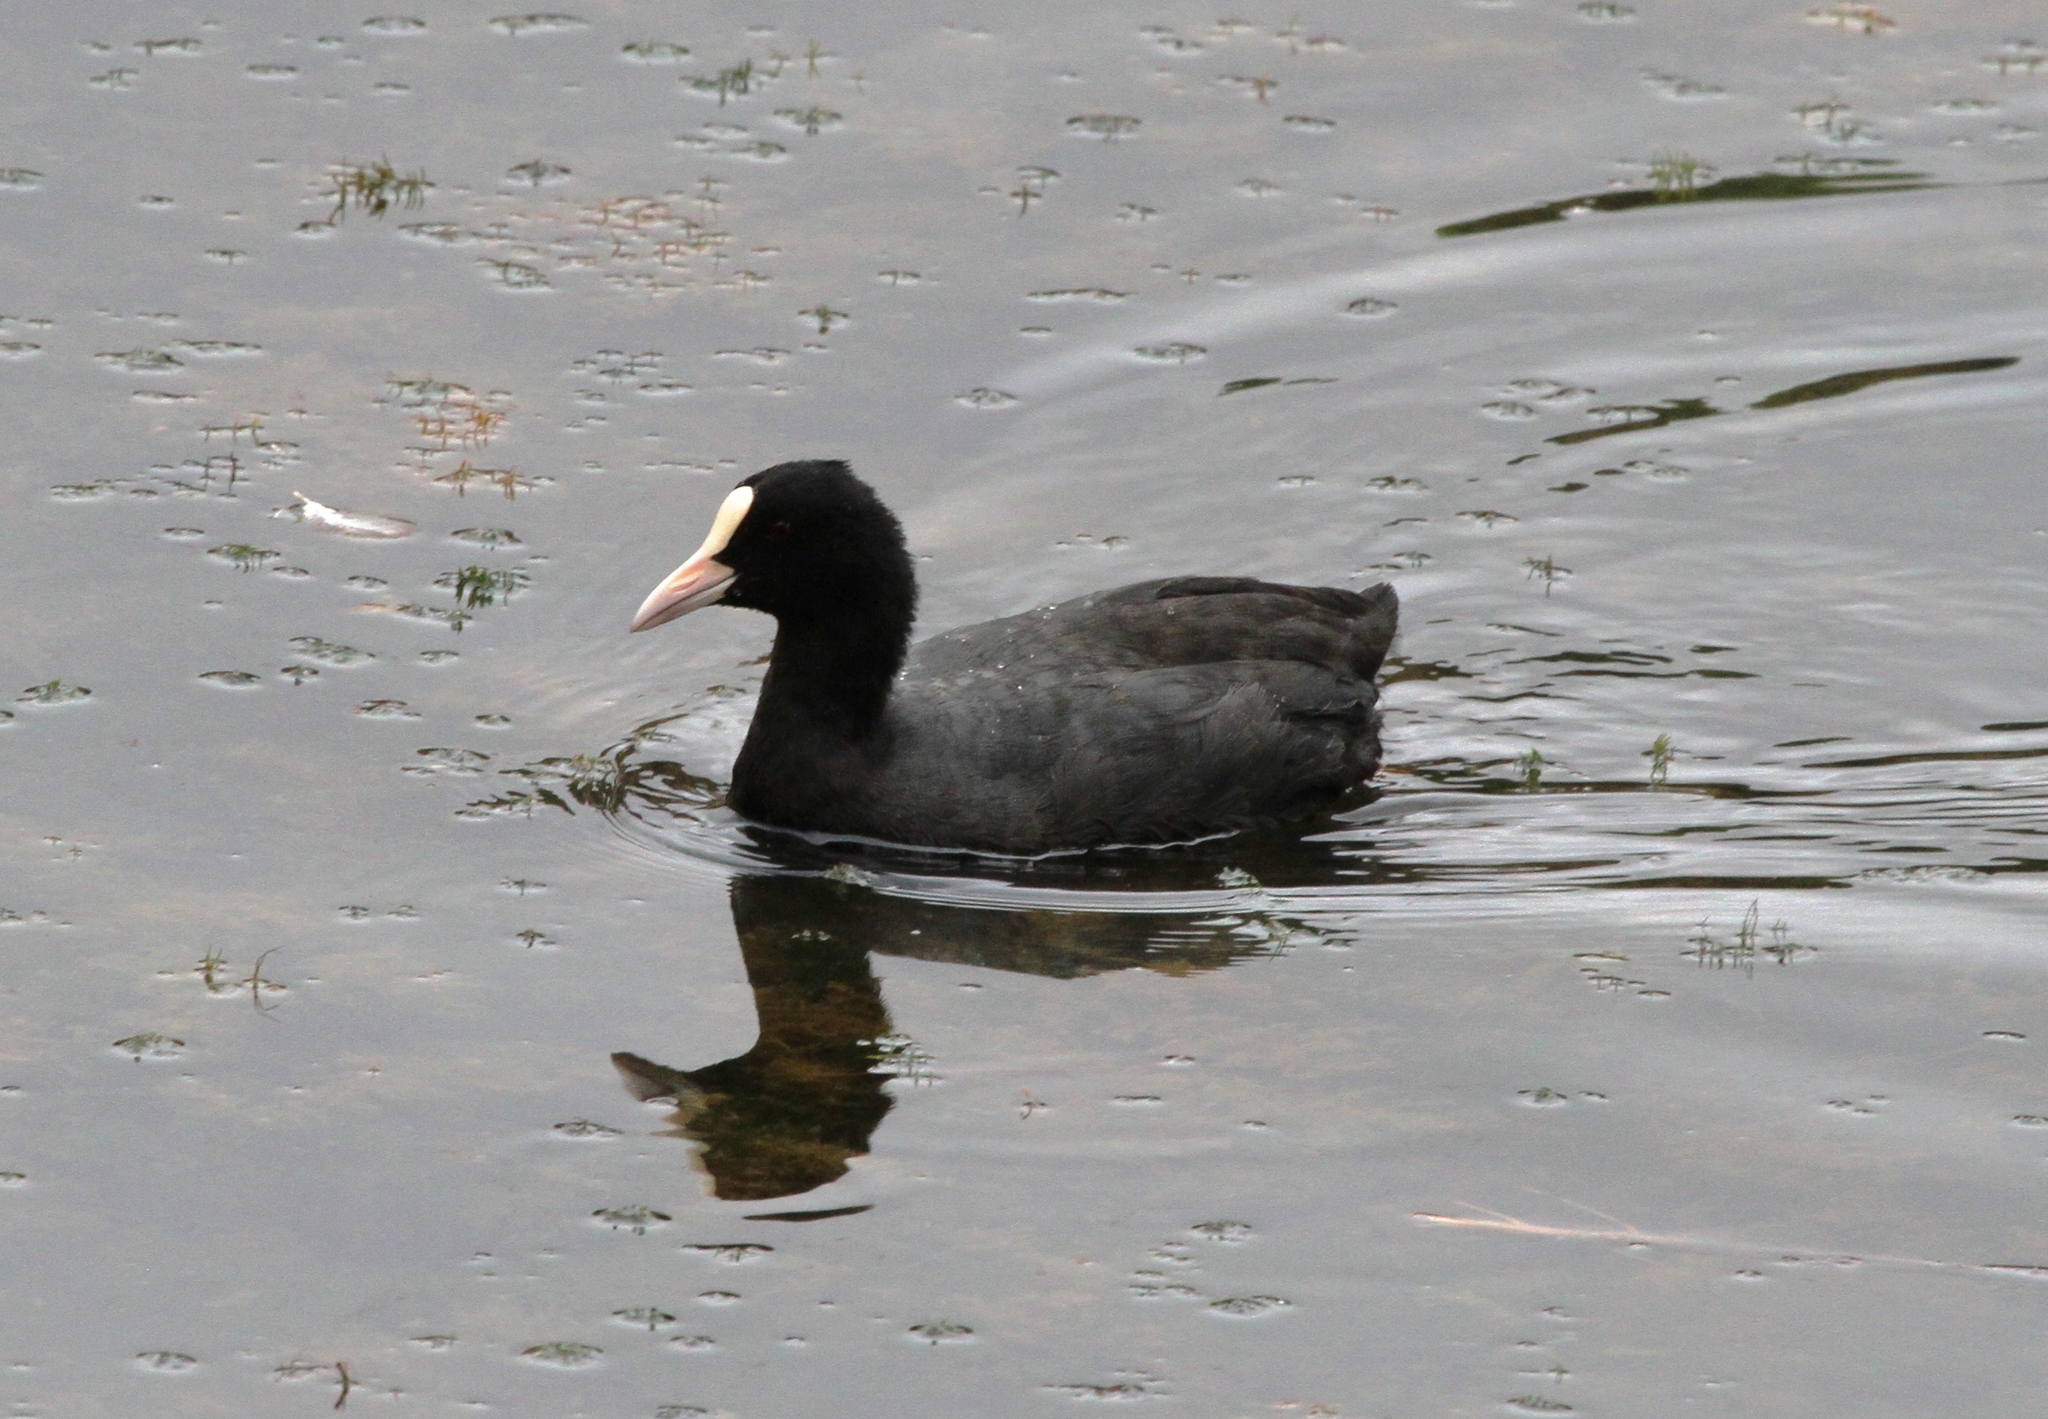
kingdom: Animalia
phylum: Chordata
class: Aves
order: Gruiformes
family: Rallidae
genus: Fulica
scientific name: Fulica atra
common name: Eurasian coot
